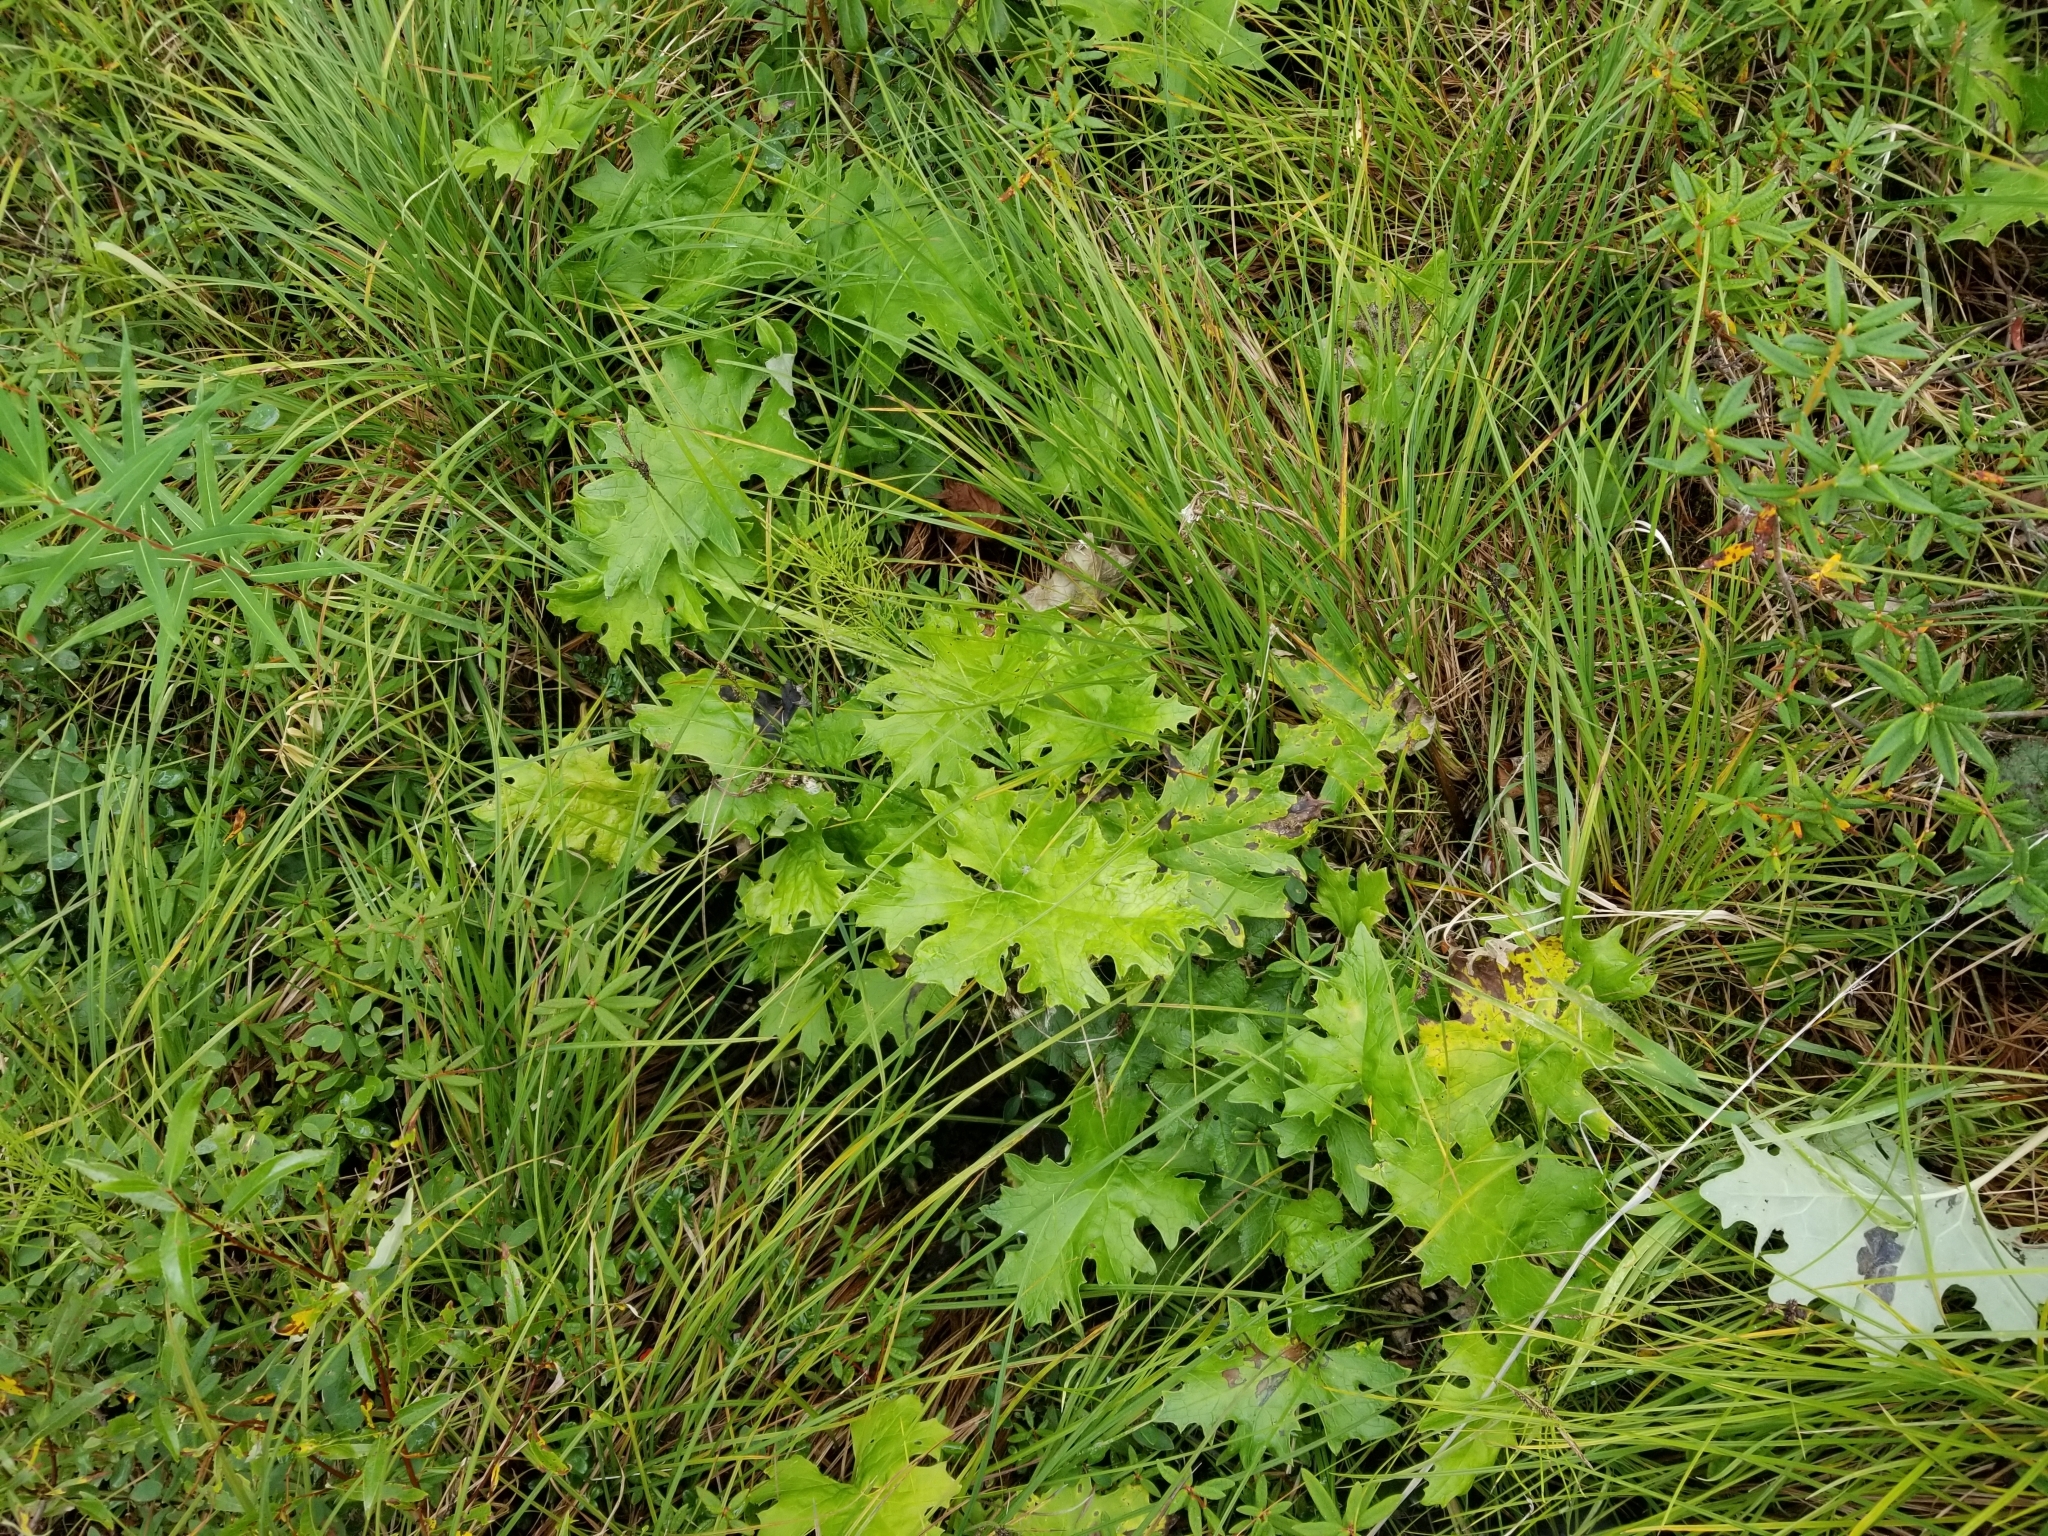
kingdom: Plantae
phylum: Tracheophyta
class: Magnoliopsida
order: Asterales
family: Asteraceae
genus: Petasites
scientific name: Petasites frigidus
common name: Arctic butterbur
